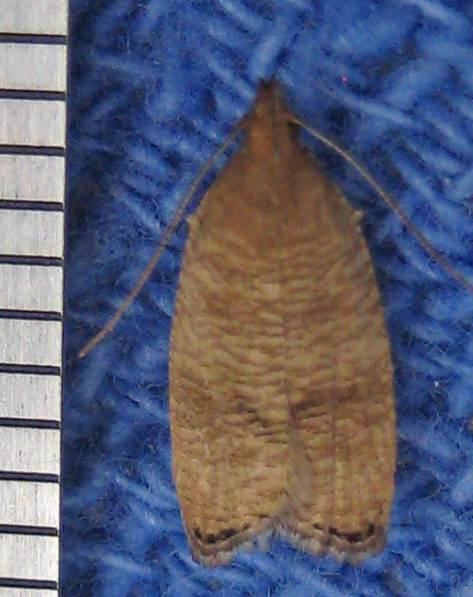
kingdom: Animalia
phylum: Arthropoda
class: Insecta
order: Lepidoptera
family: Depressariidae
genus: Psilocorsis
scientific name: Psilocorsis cryptolechiella
